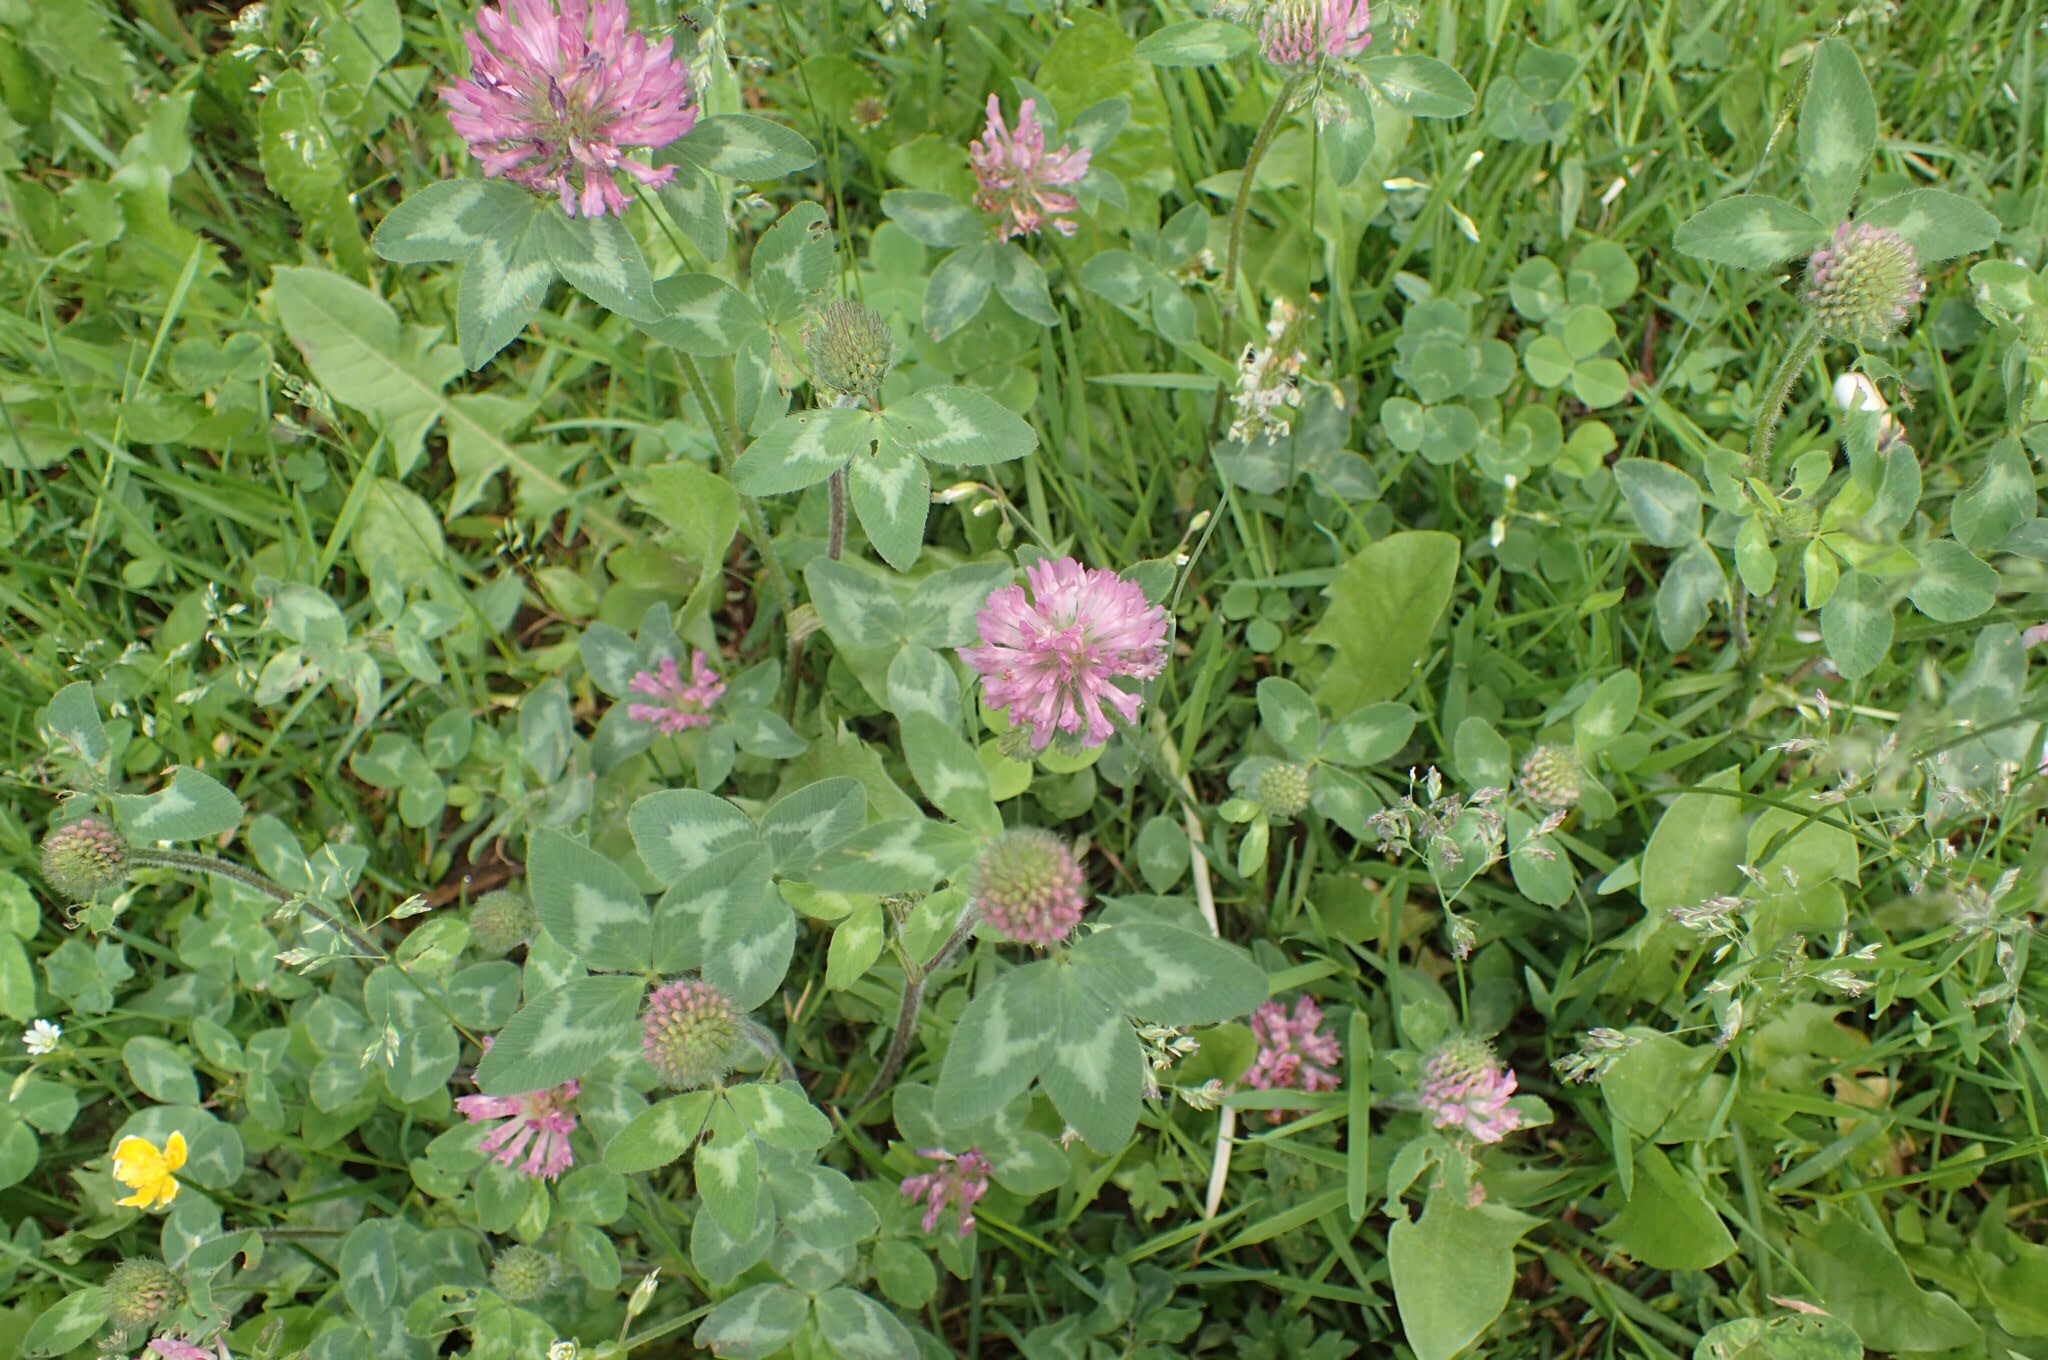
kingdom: Plantae
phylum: Tracheophyta
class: Magnoliopsida
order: Fabales
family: Fabaceae
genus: Trifolium
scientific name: Trifolium pratense
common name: Red clover
